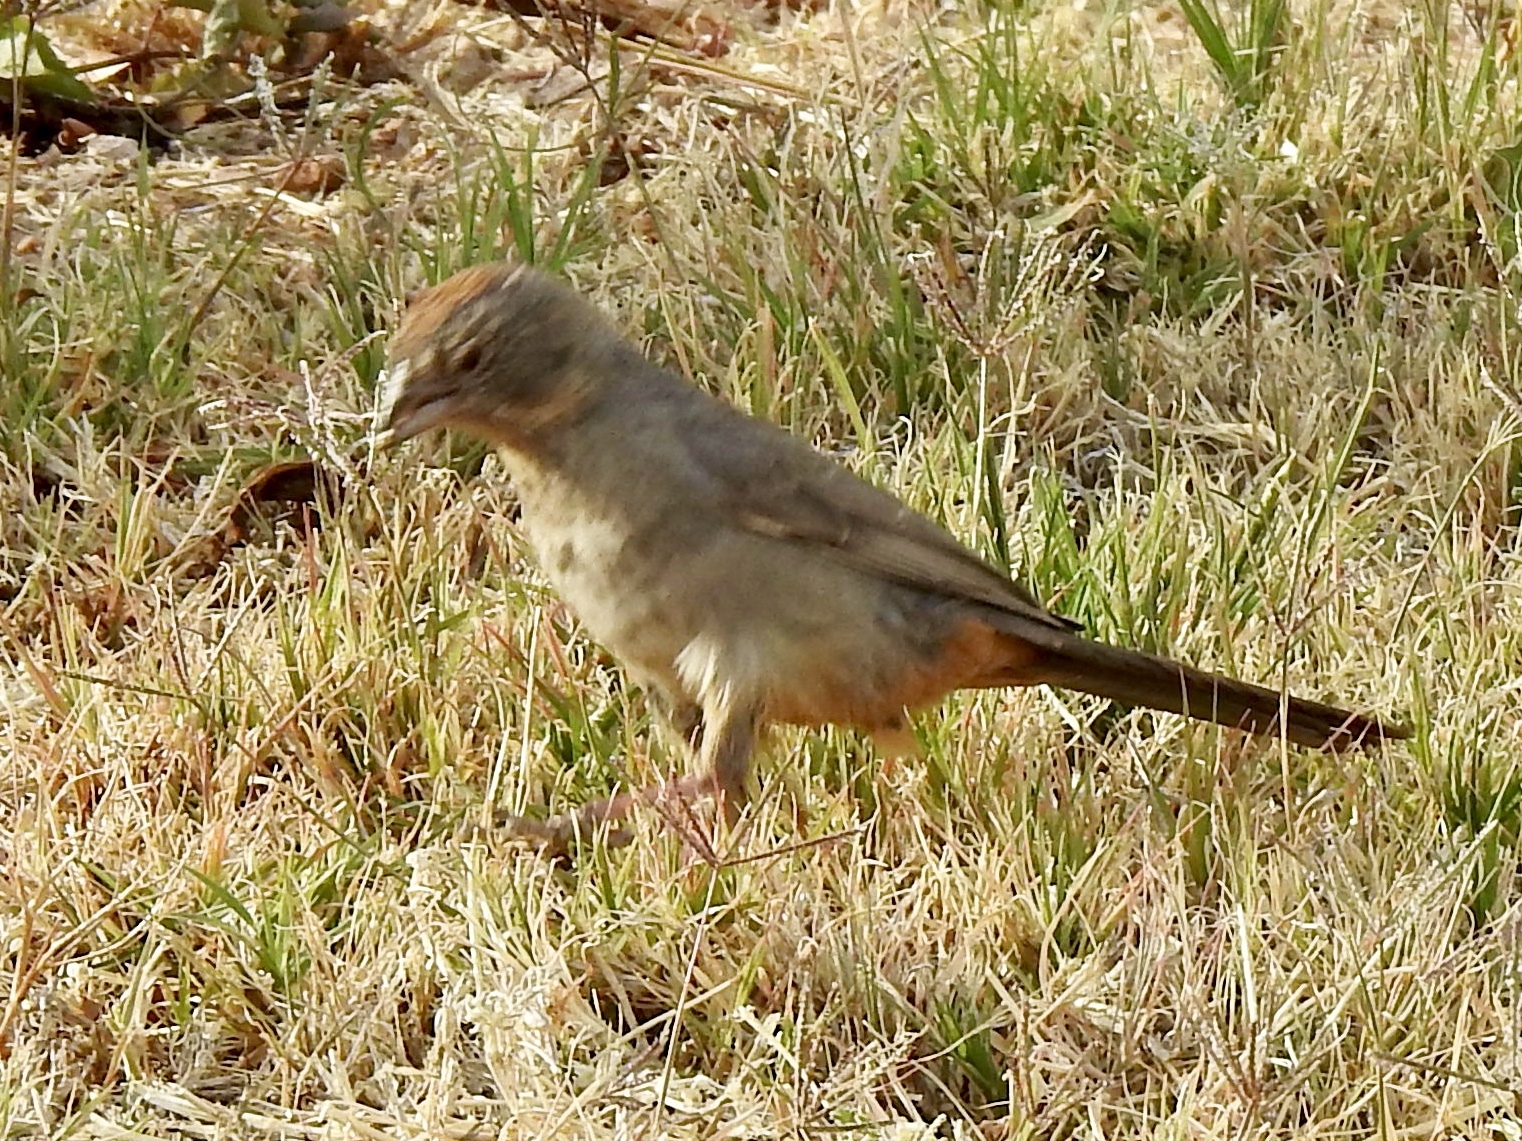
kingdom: Animalia
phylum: Chordata
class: Aves
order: Passeriformes
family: Passerellidae
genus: Melozone
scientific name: Melozone fusca
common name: Canyon towhee
